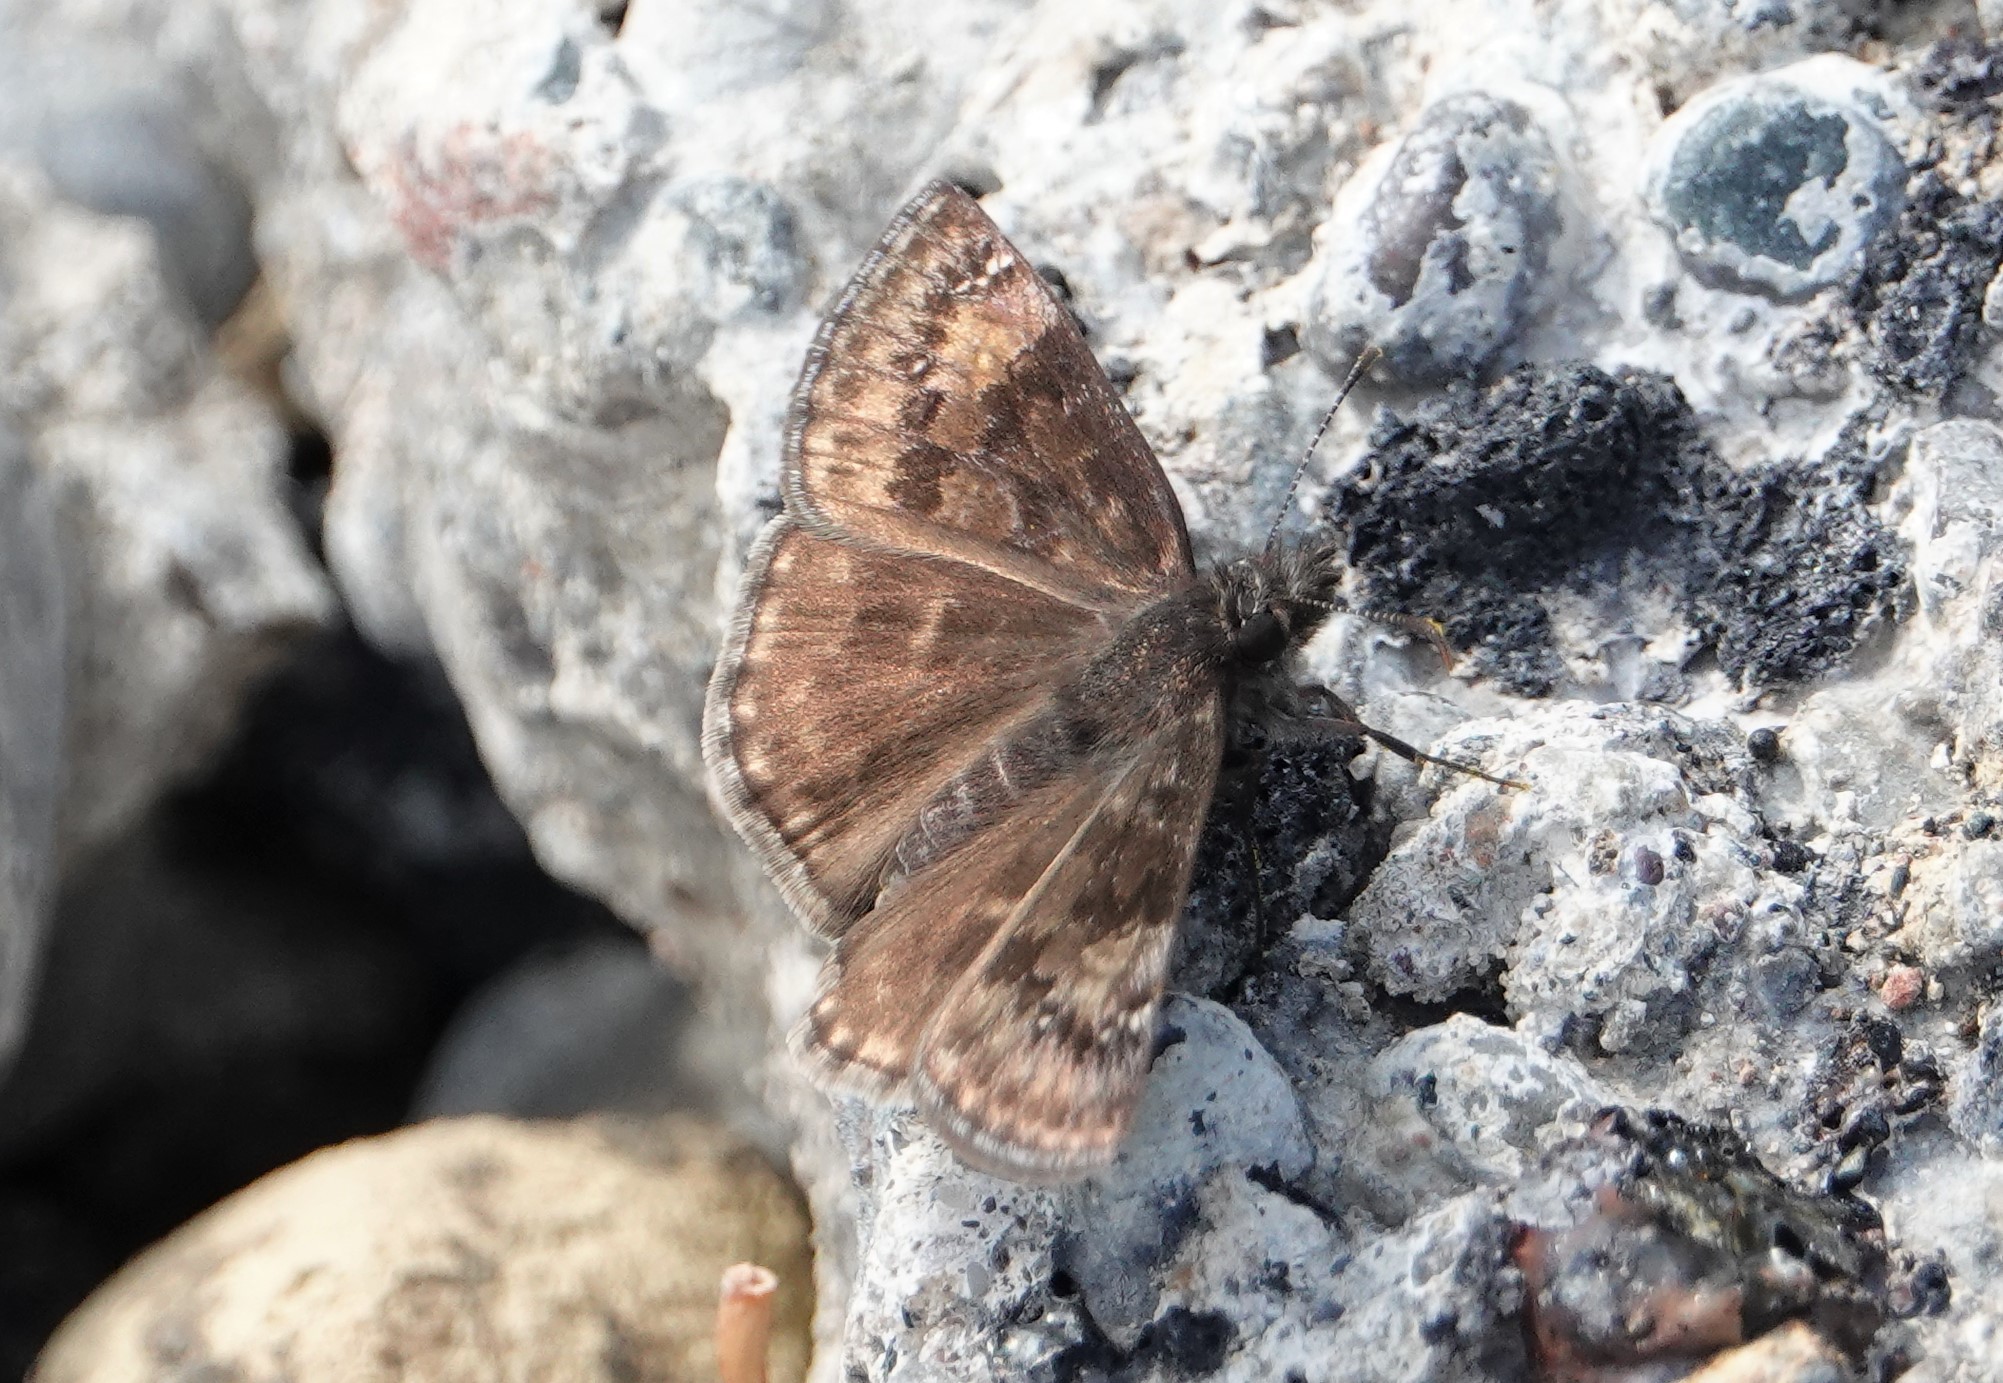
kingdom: Animalia
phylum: Arthropoda
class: Insecta
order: Lepidoptera
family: Hesperiidae
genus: Erynnis
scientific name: Erynnis baptisiae
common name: Wild indigo duskywing
